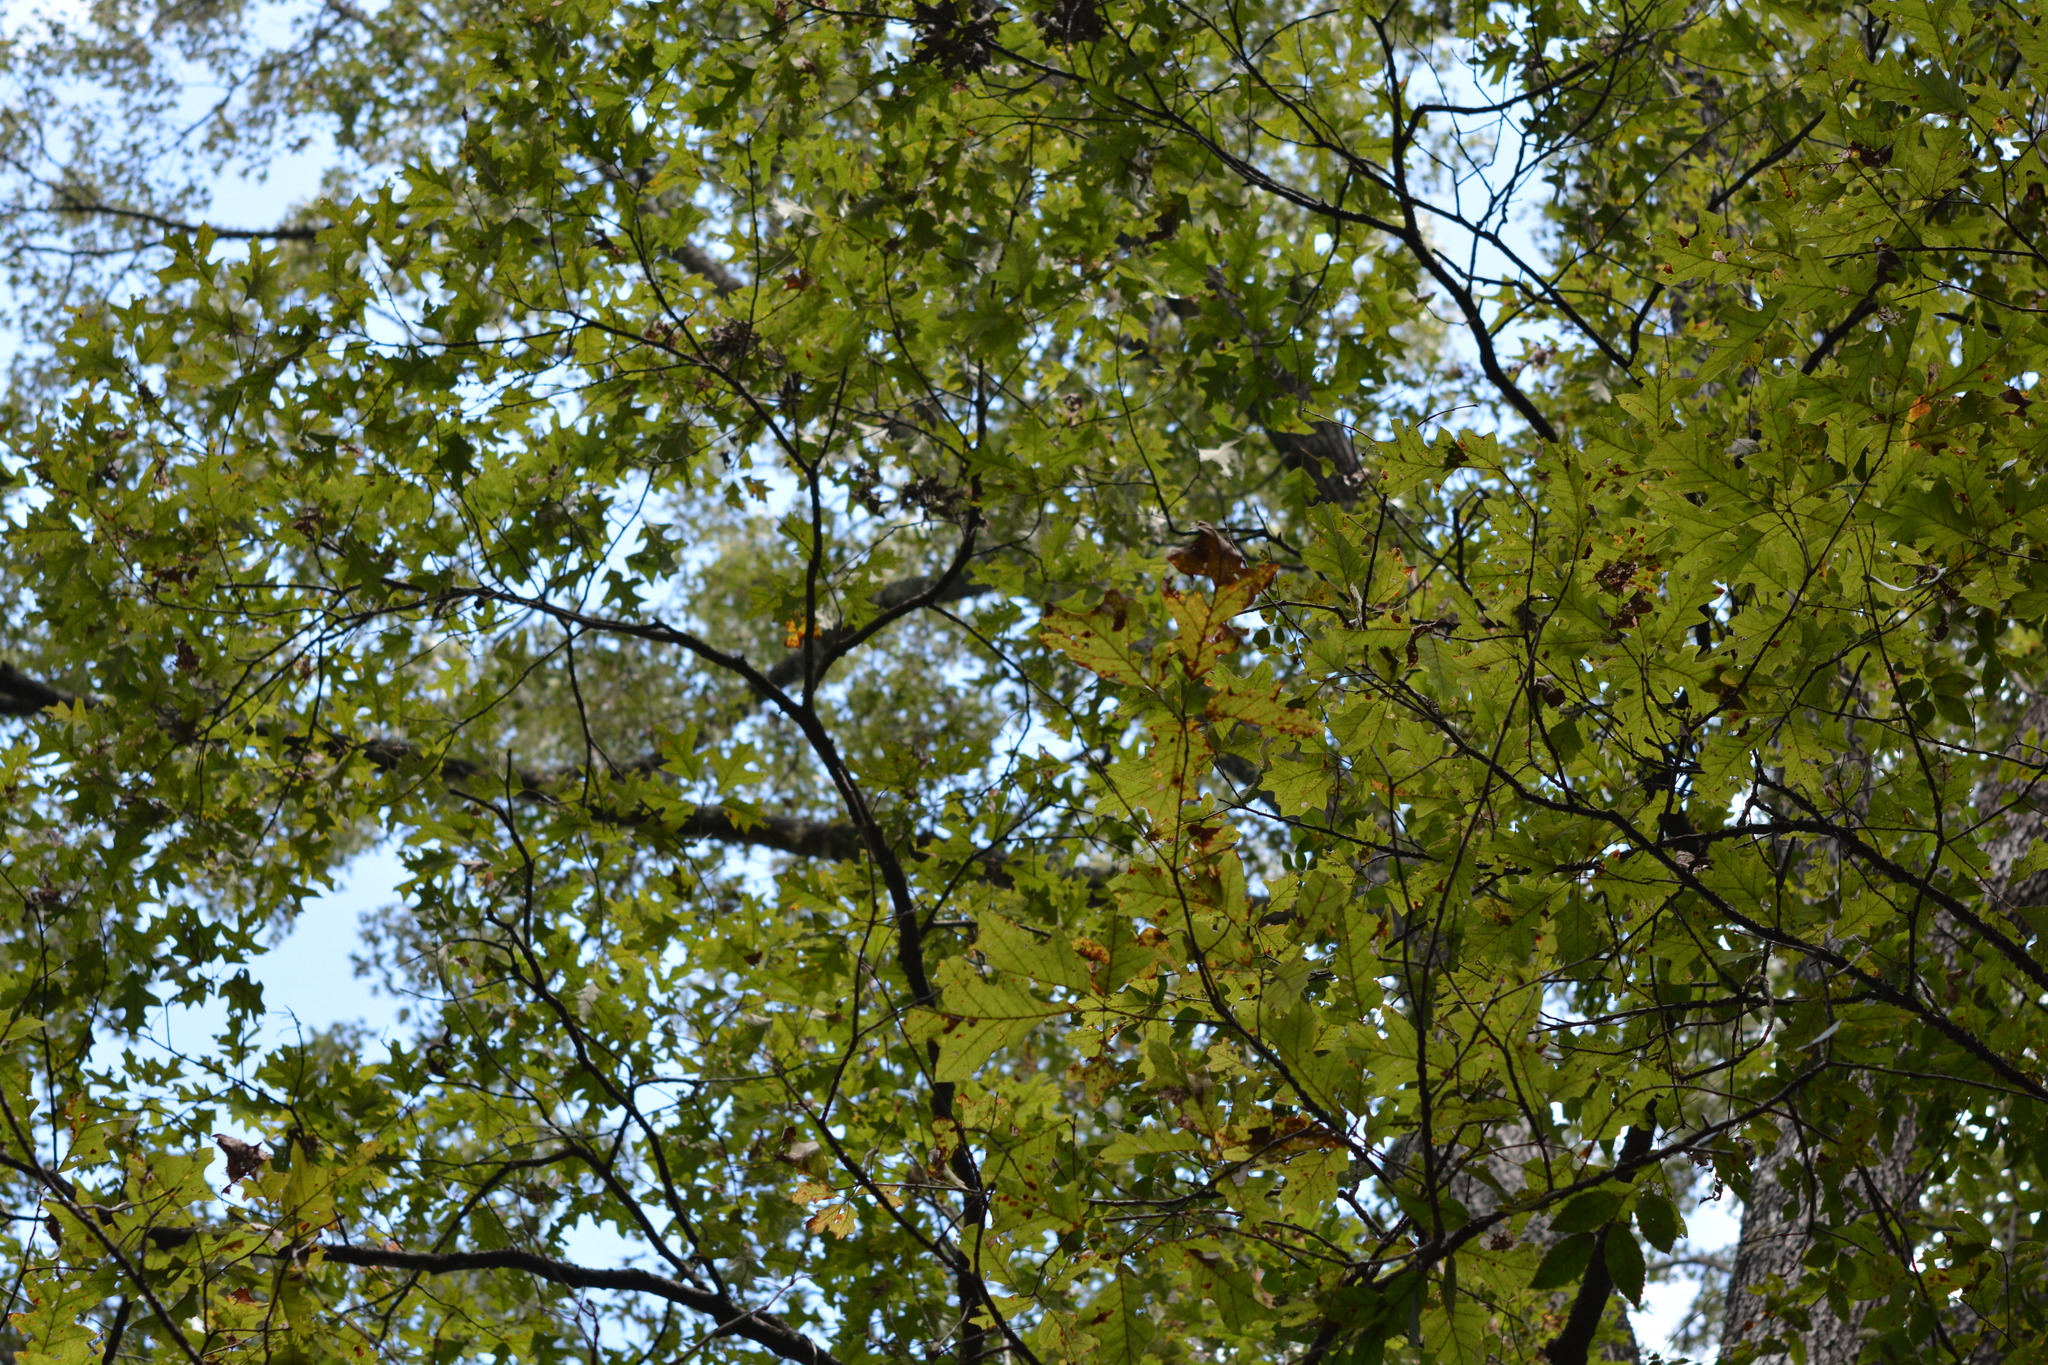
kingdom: Fungi
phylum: Basidiomycota
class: Agaricomycetes
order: Russulales
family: Russulaceae
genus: Russula
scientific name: Russula pusilla
